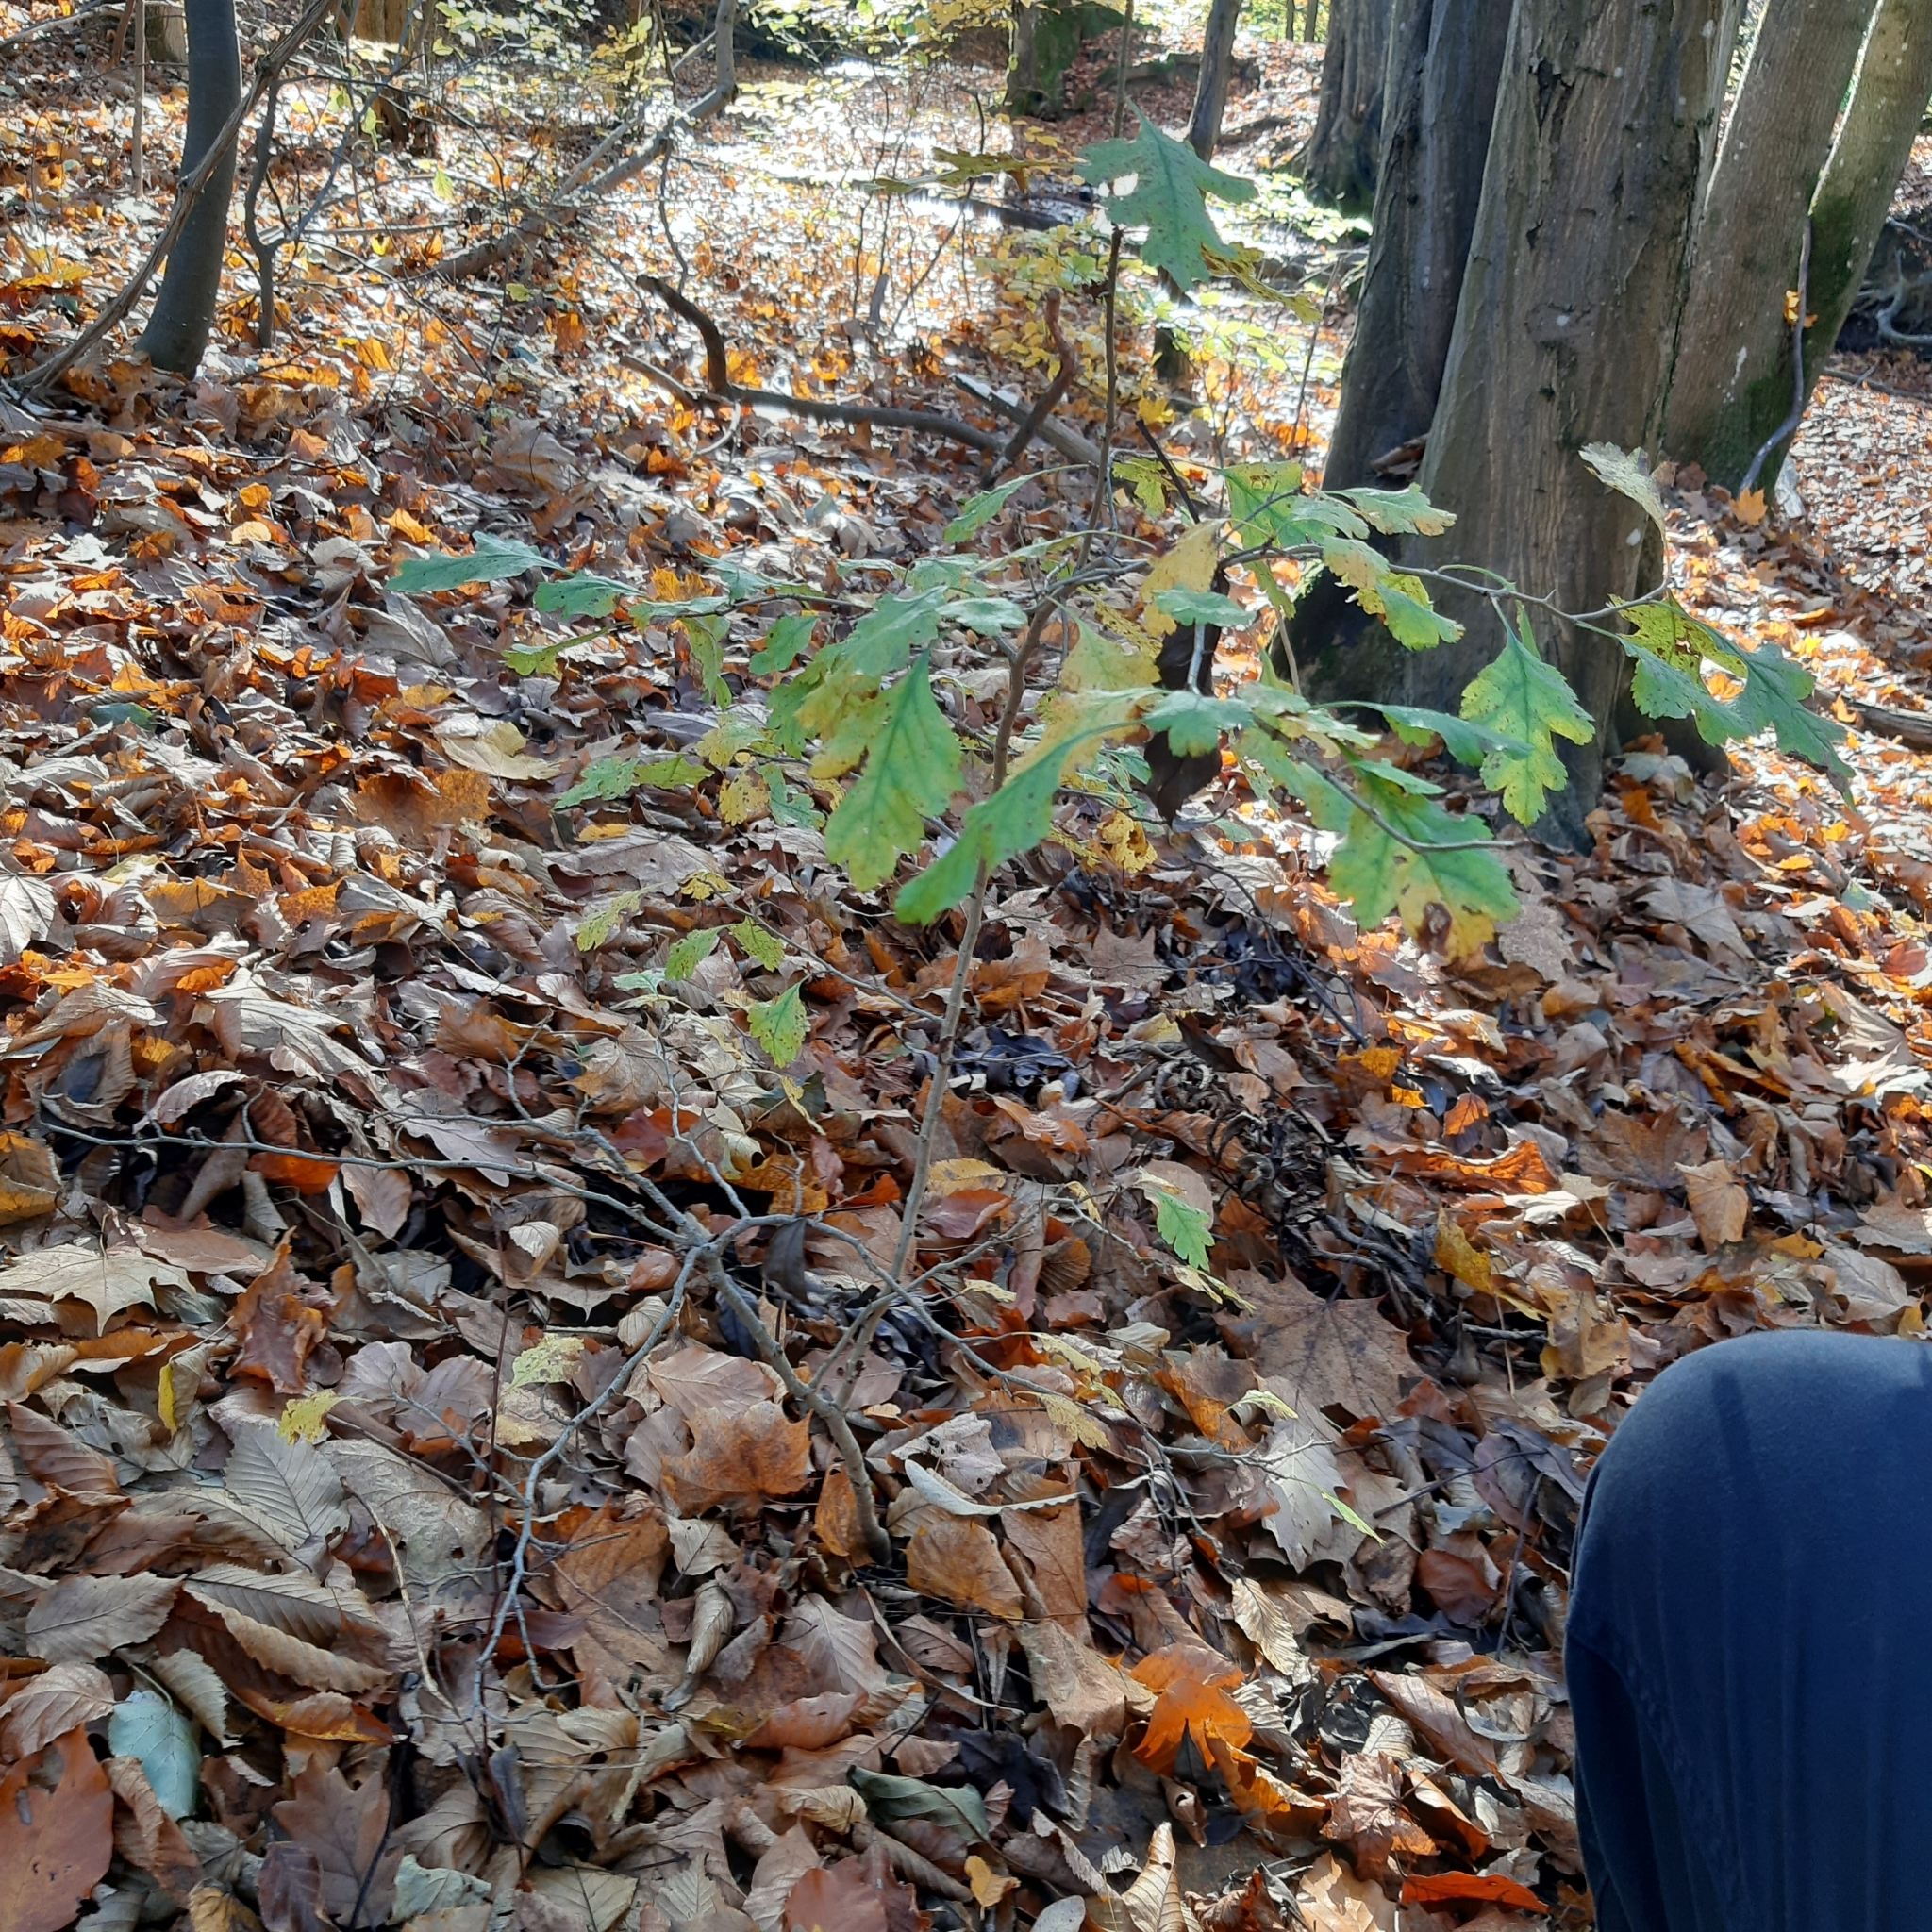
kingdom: Plantae
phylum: Tracheophyta
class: Magnoliopsida
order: Rosales
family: Rosaceae
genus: Crataegus
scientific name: Crataegus monogyna
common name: Hawthorn
